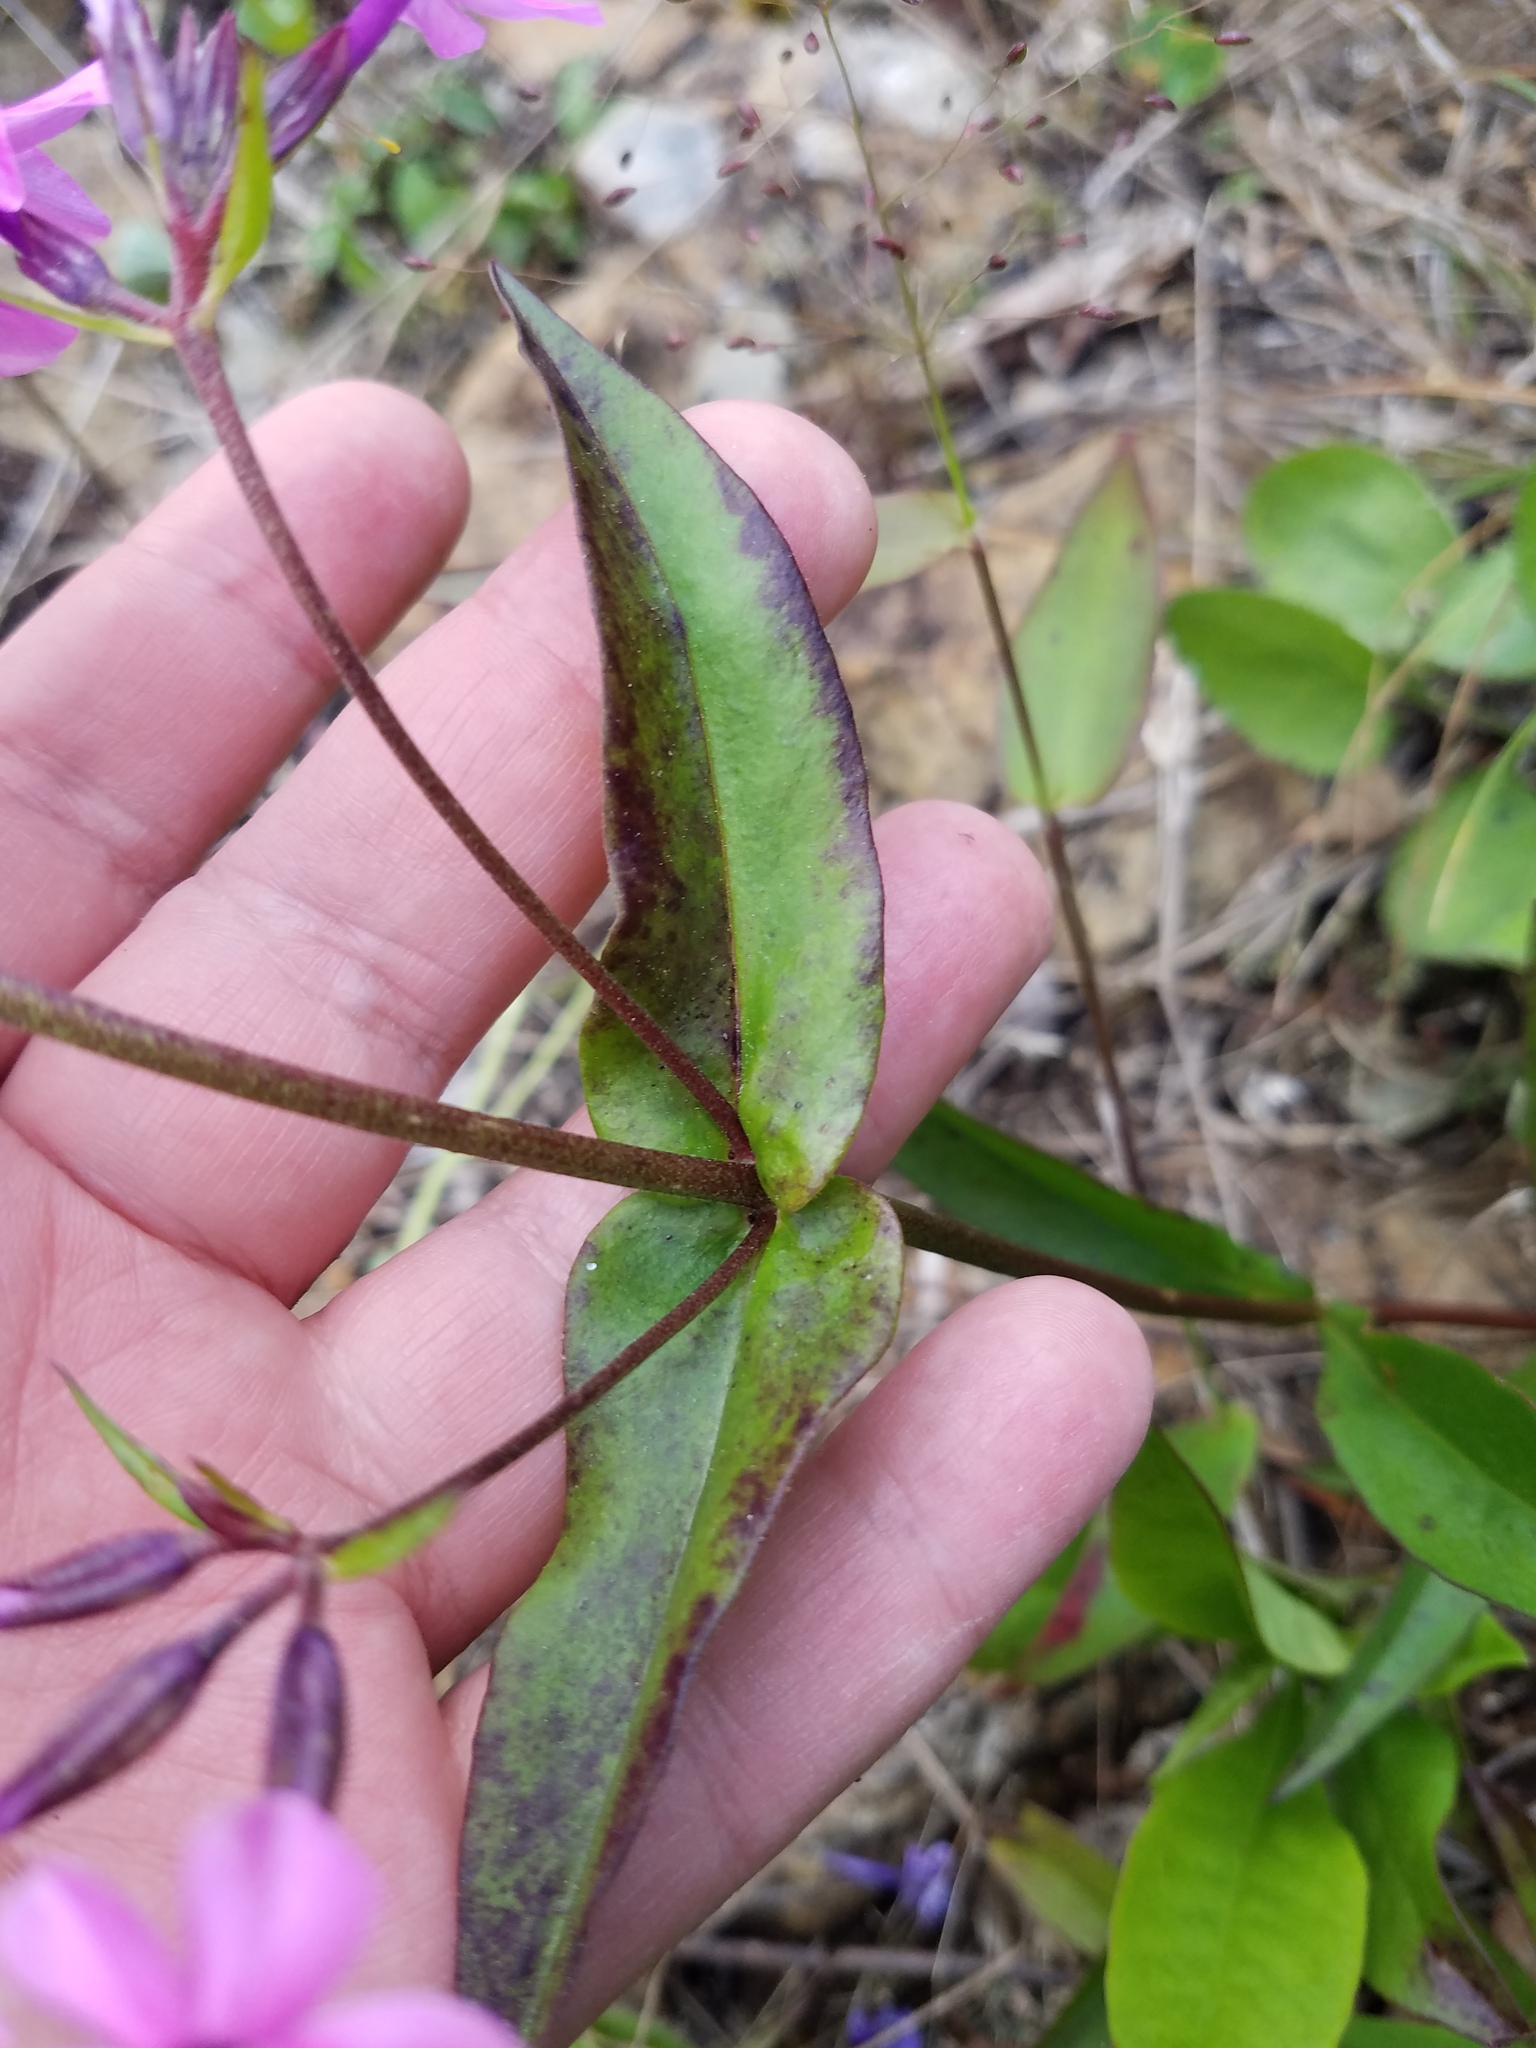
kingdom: Plantae
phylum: Tracheophyta
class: Magnoliopsida
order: Ericales
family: Polemoniaceae
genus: Phlox
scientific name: Phlox ovata
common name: Mountain phlox
